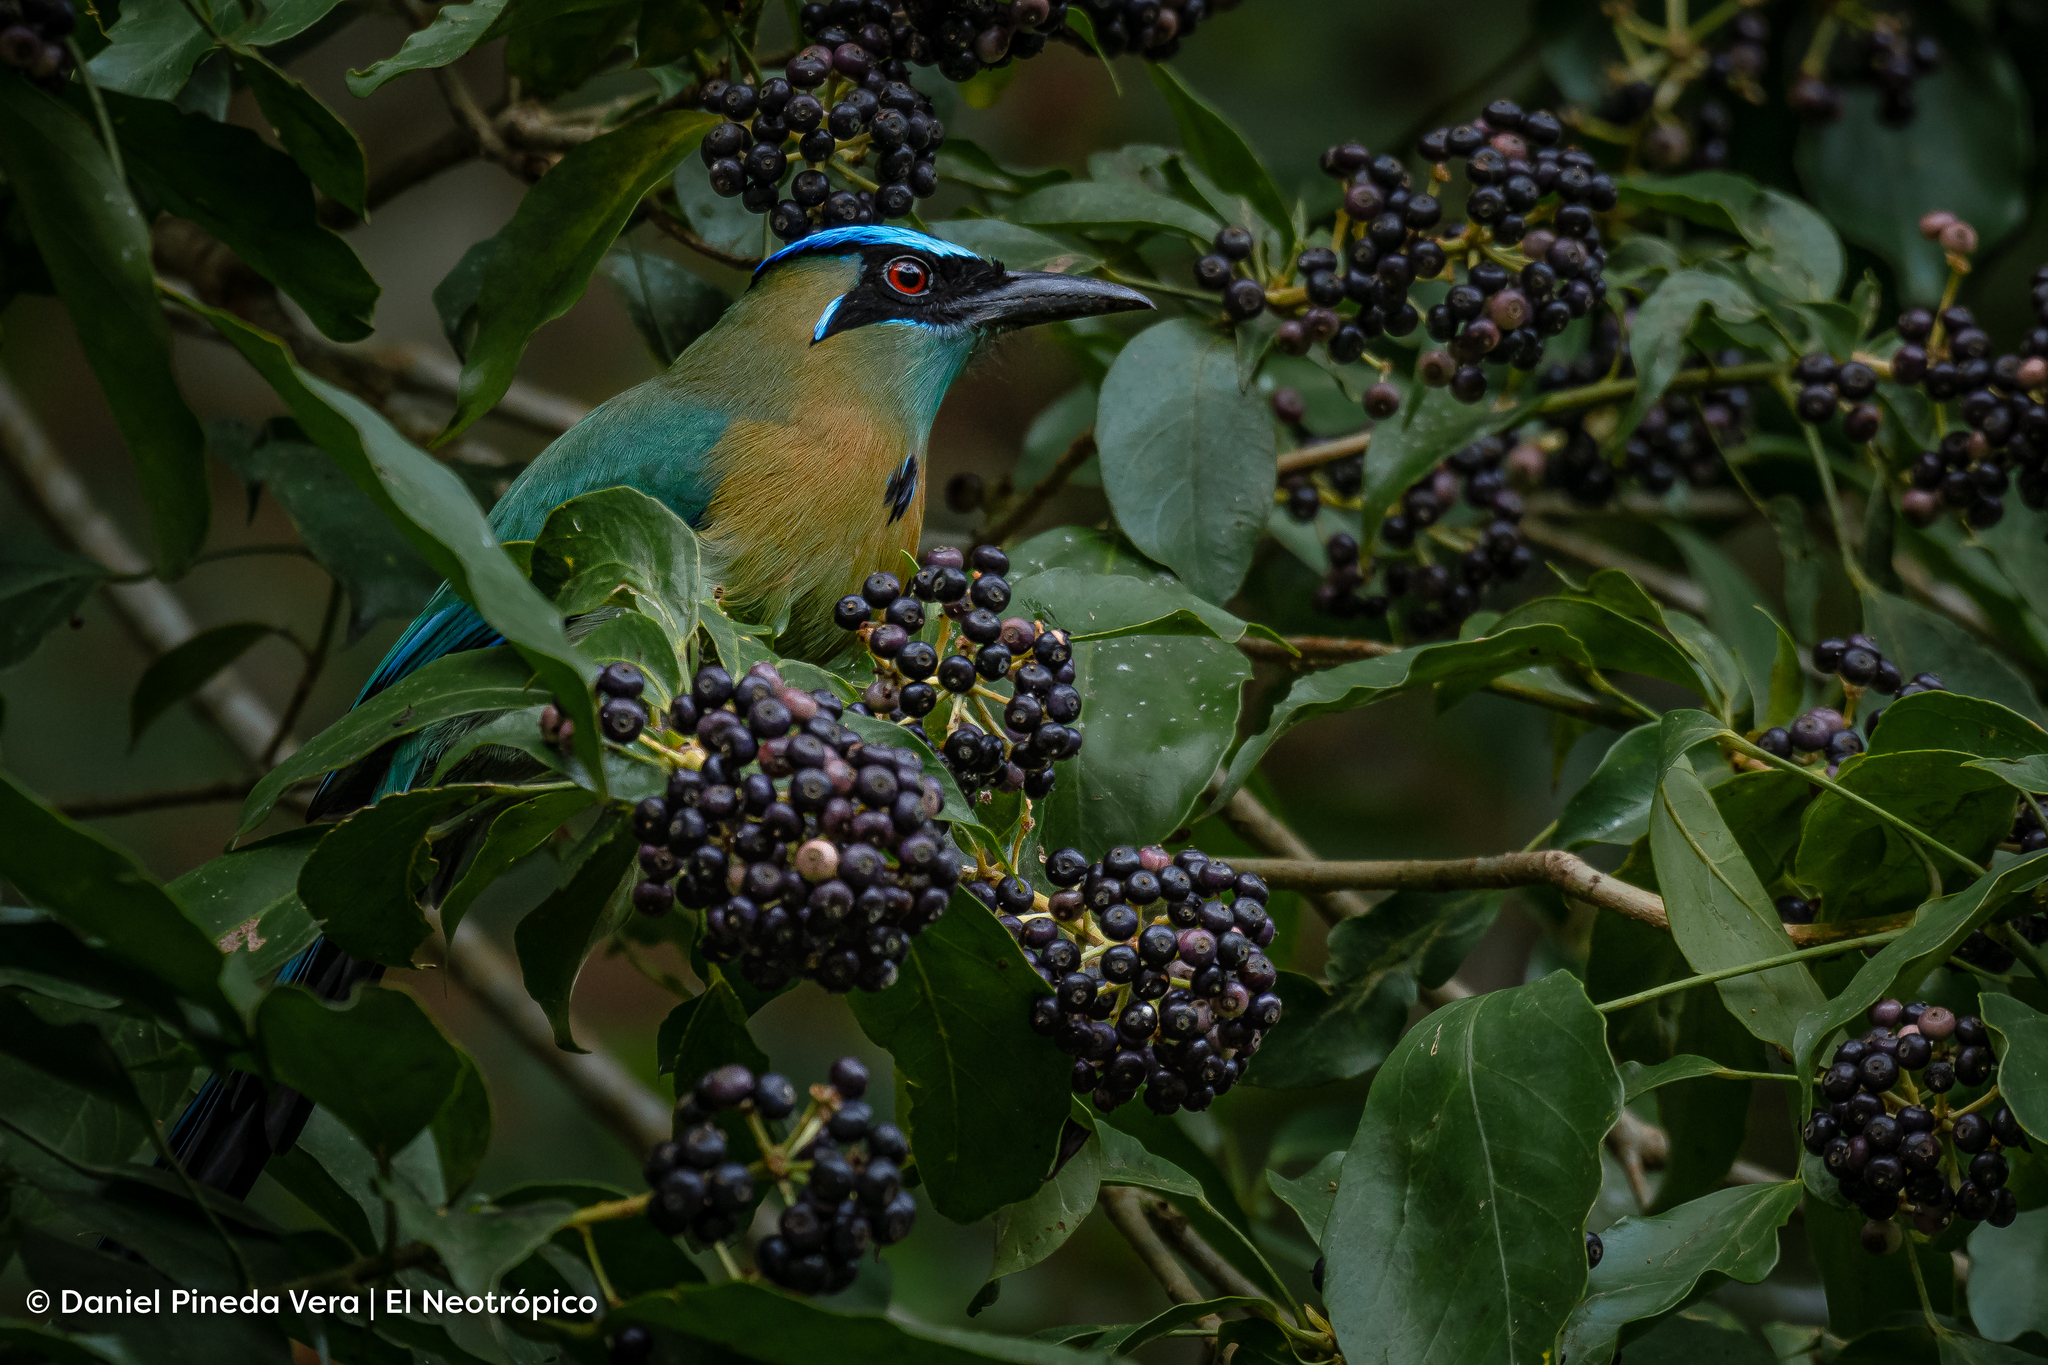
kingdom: Animalia
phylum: Chordata
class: Aves
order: Coraciiformes
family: Momotidae
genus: Momotus
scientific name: Momotus lessonii
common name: Lesson's motmot
